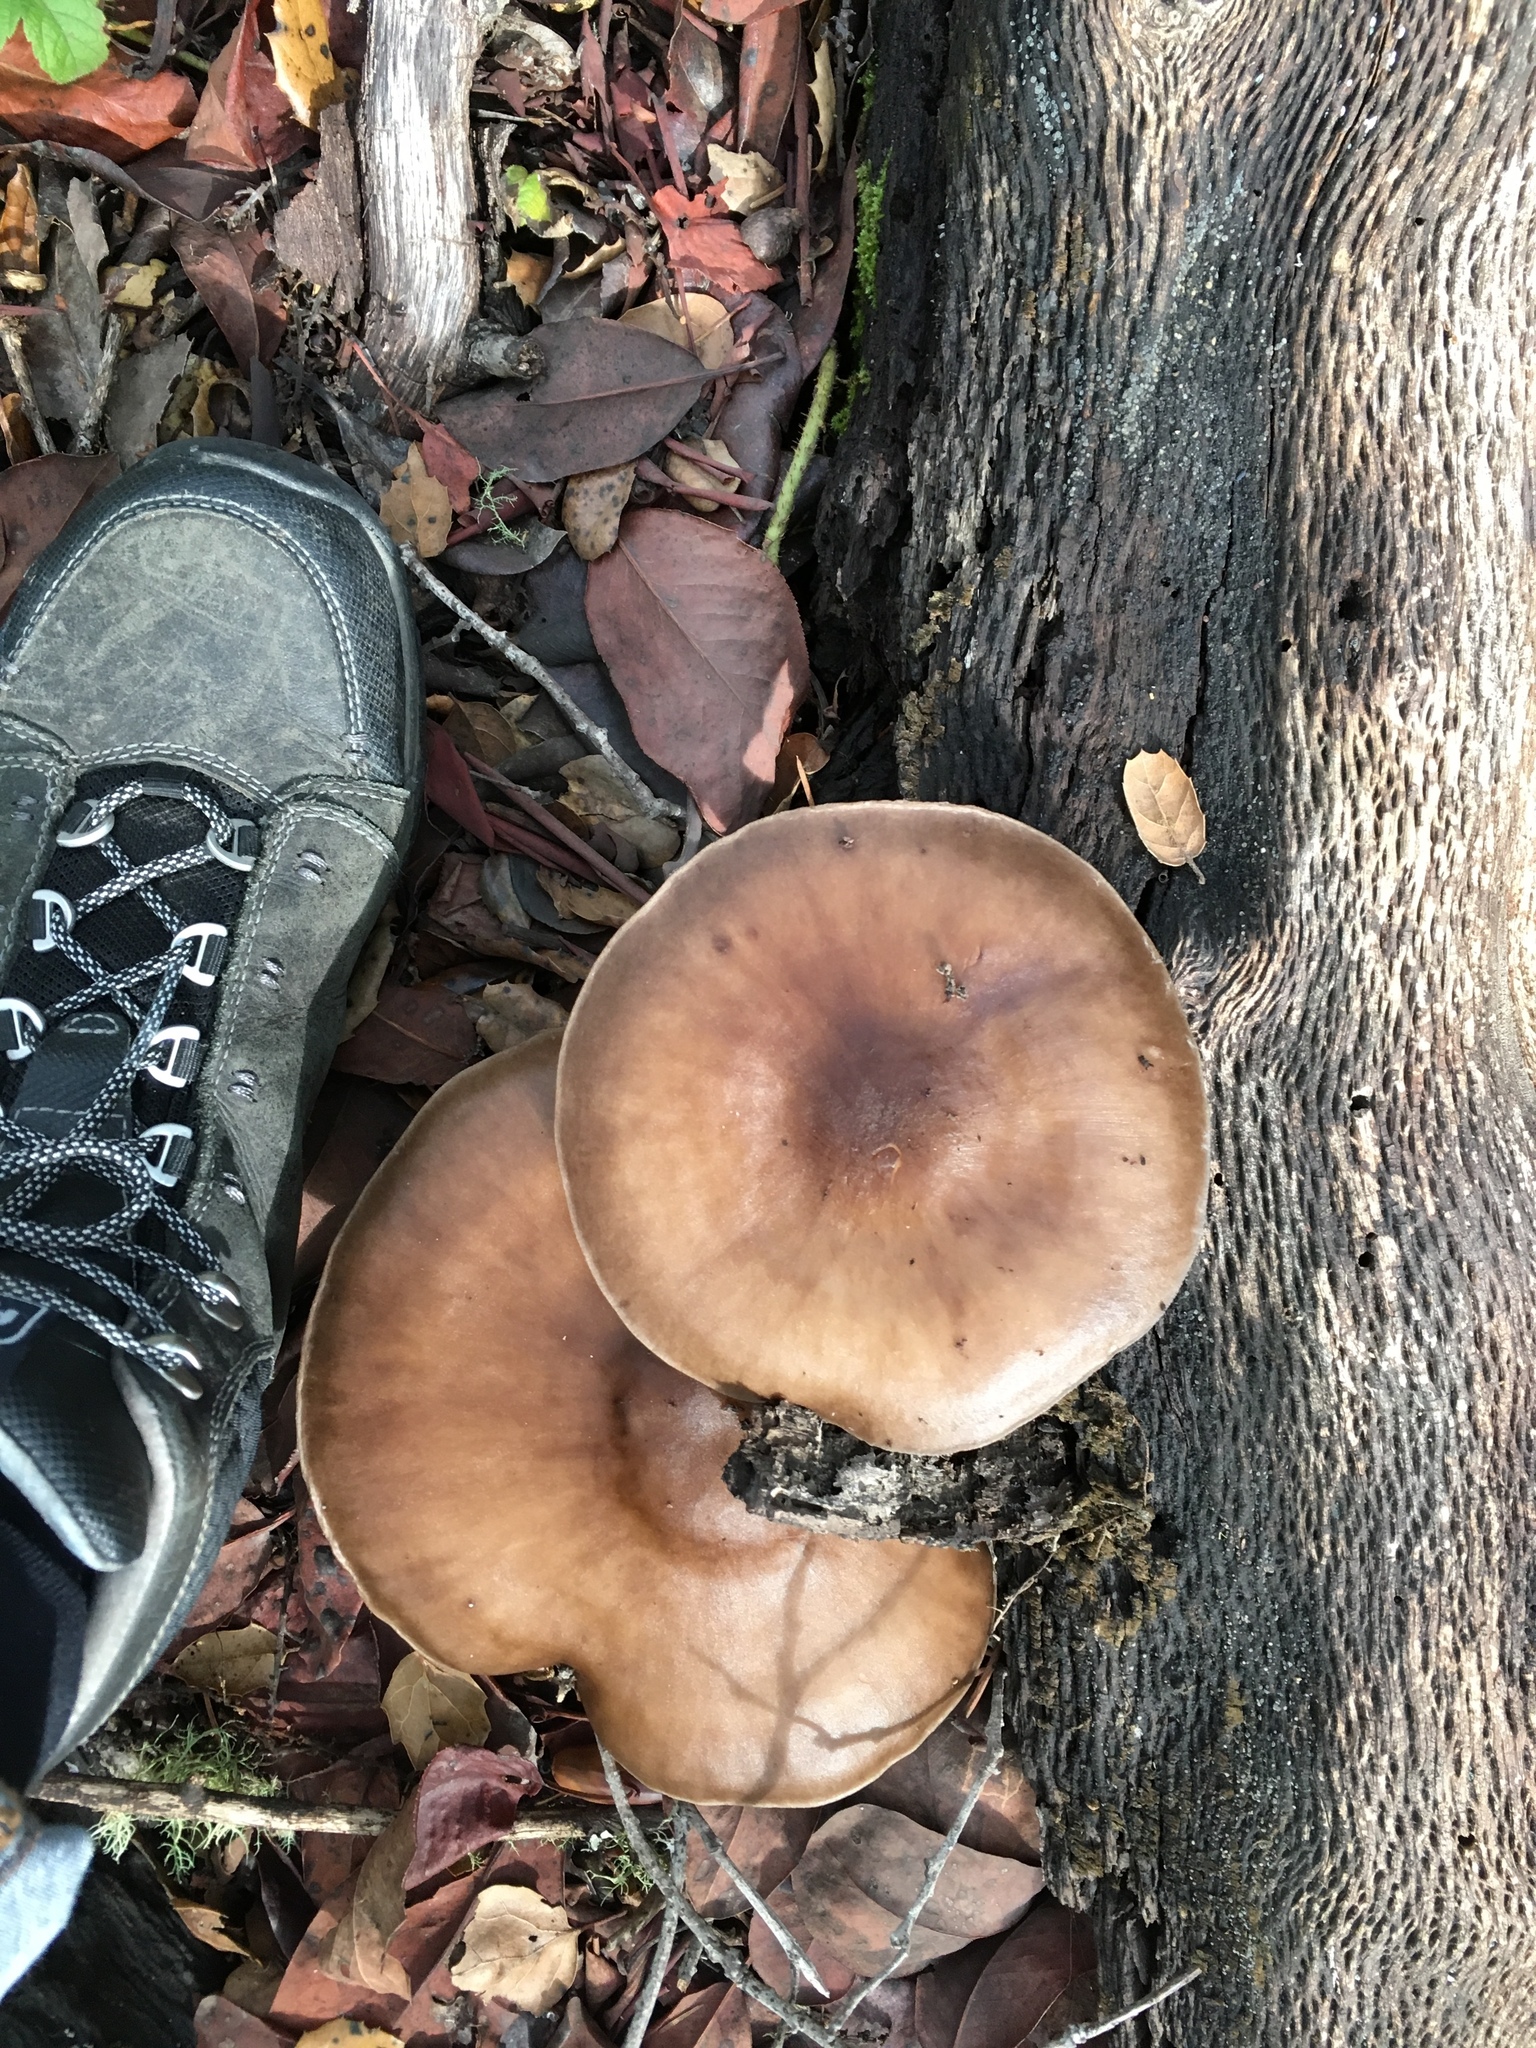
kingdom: Fungi
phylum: Basidiomycota
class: Agaricomycetes
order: Agaricales
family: Pluteaceae
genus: Pluteus
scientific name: Pluteus cervinus
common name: Deer shield
